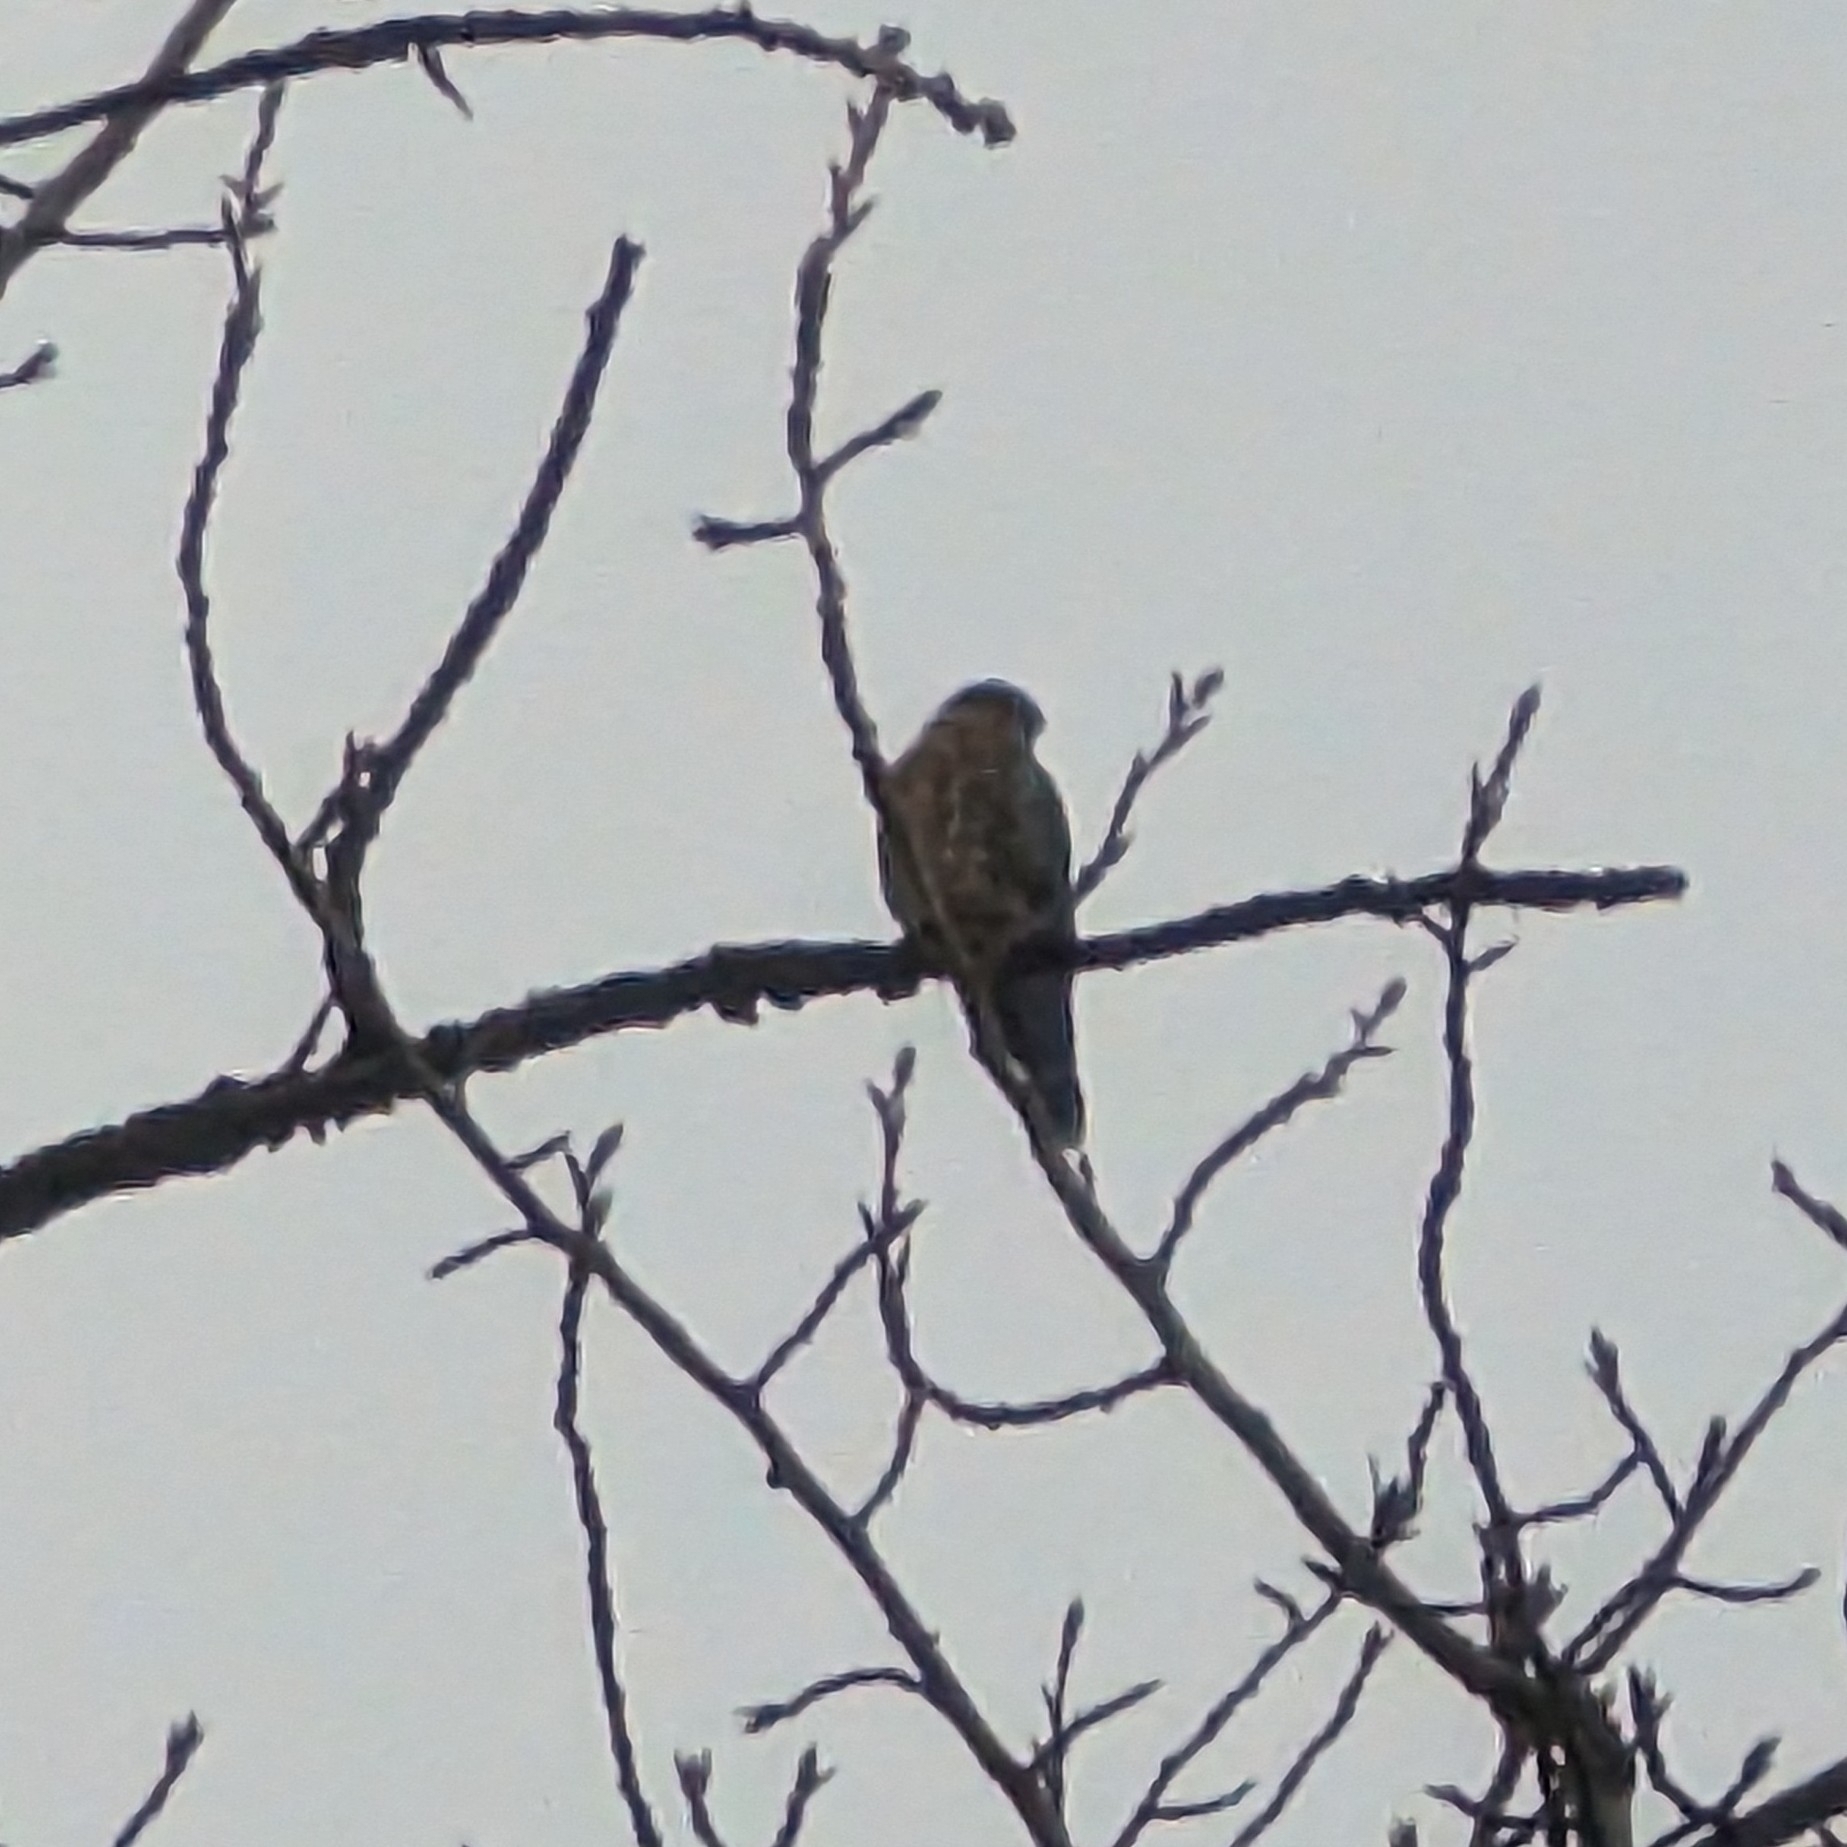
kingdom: Animalia
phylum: Chordata
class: Aves
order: Falconiformes
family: Falconidae
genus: Falco
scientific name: Falco columbarius
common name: Merlin
